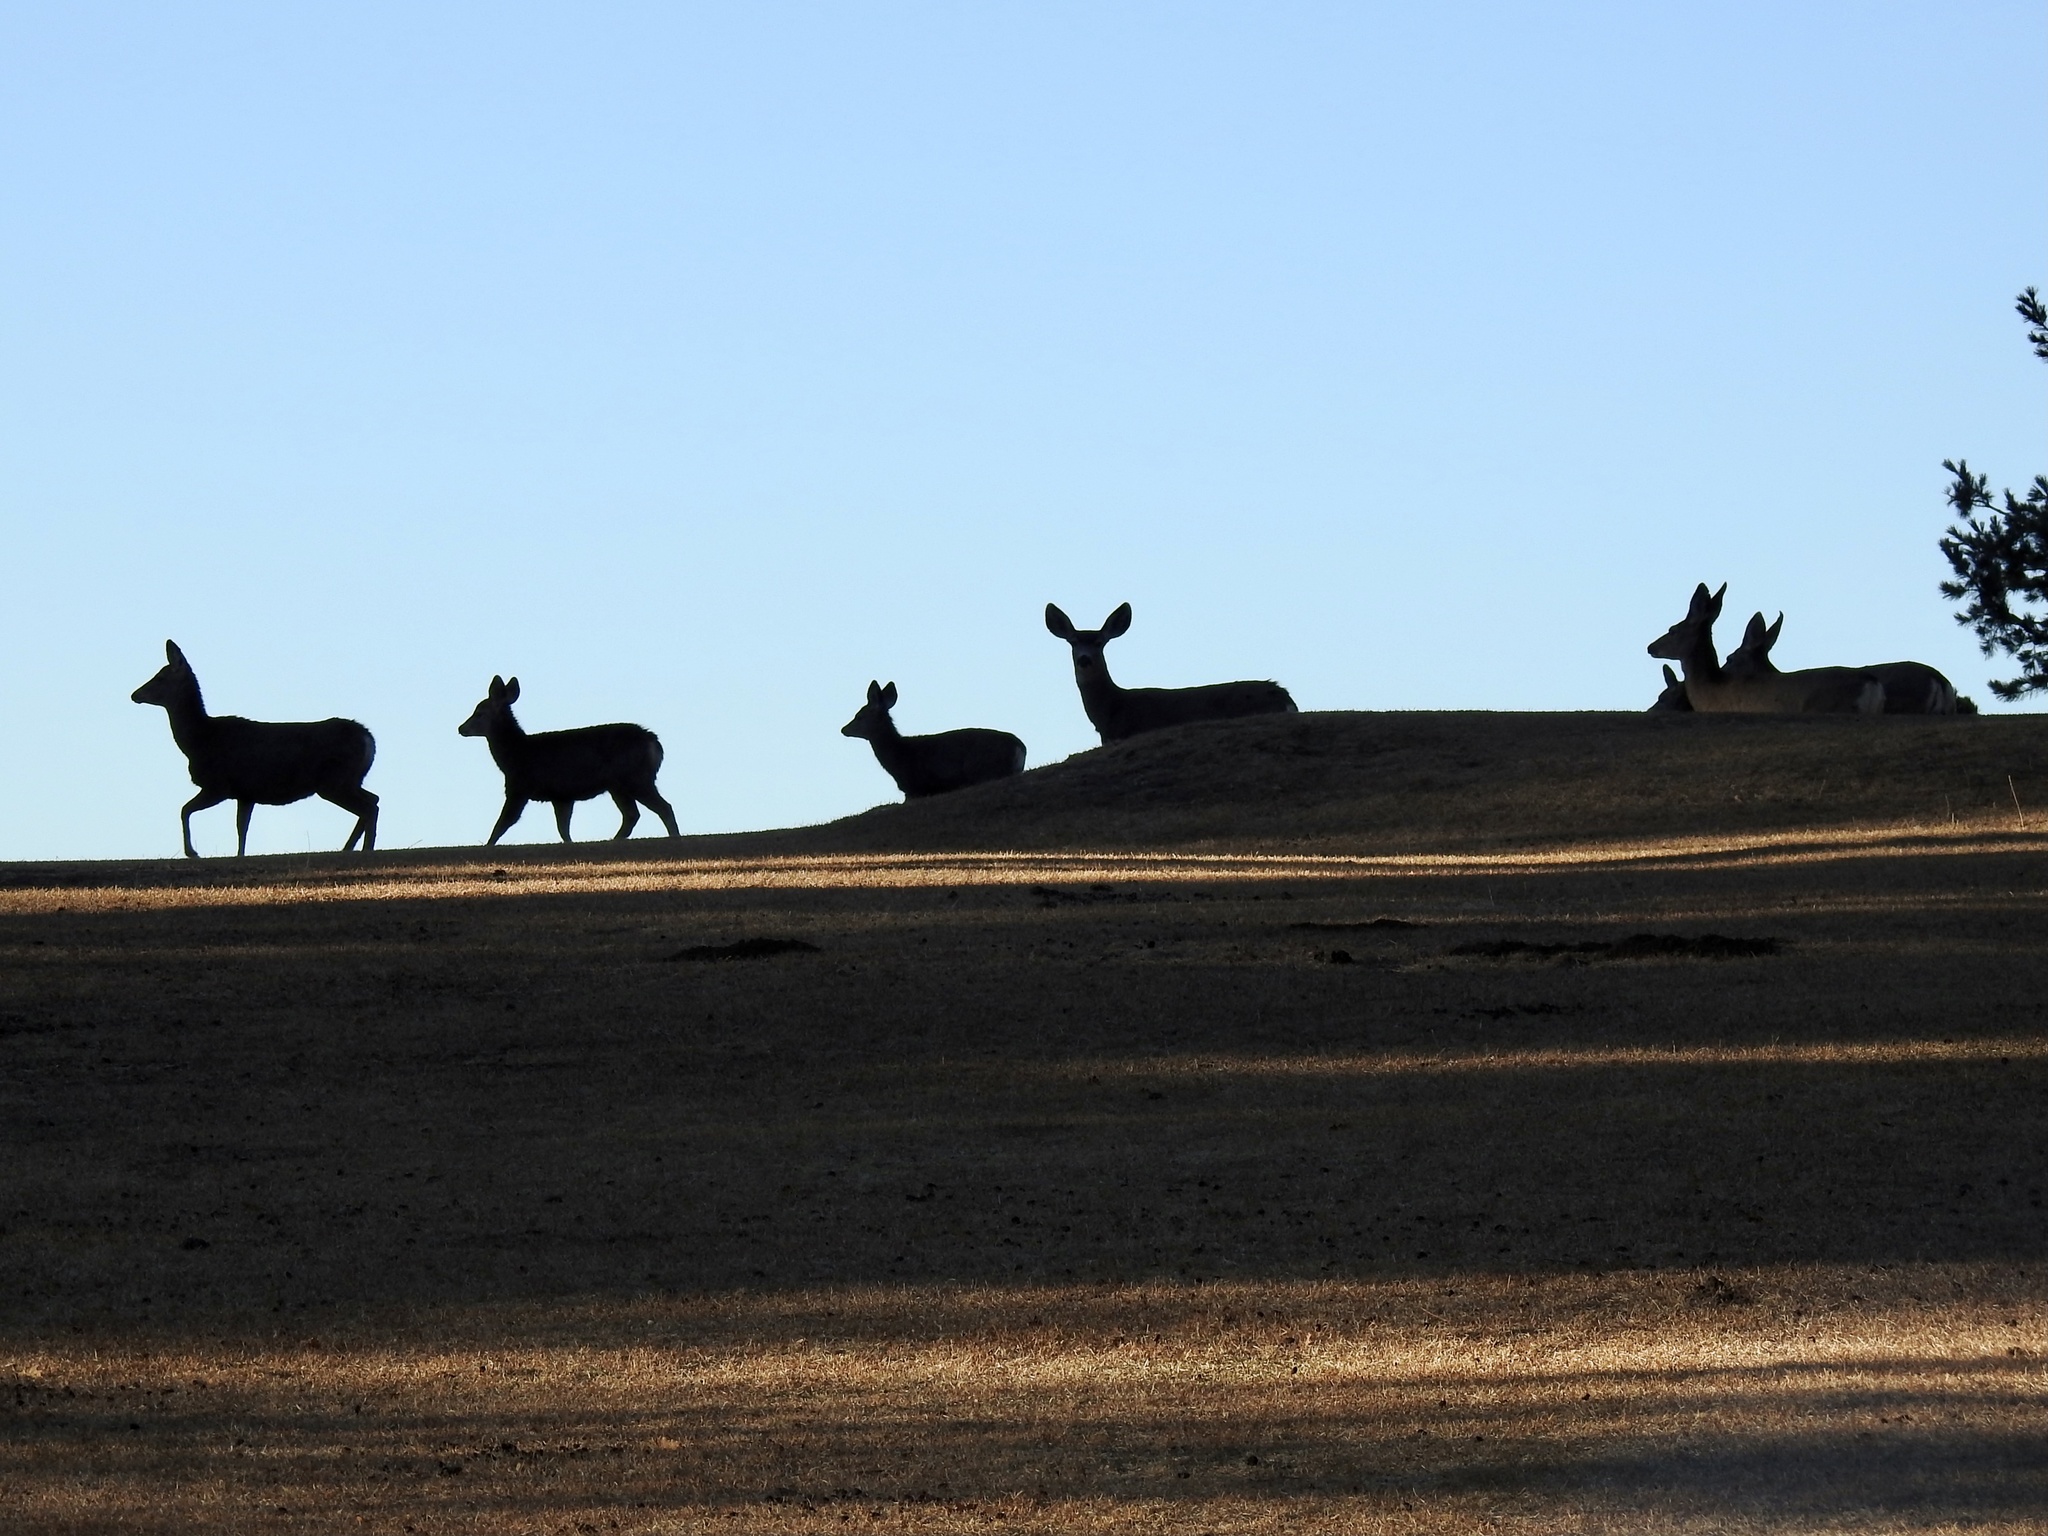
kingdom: Animalia
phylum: Chordata
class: Mammalia
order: Artiodactyla
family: Cervidae
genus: Odocoileus
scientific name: Odocoileus hemionus
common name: Mule deer
